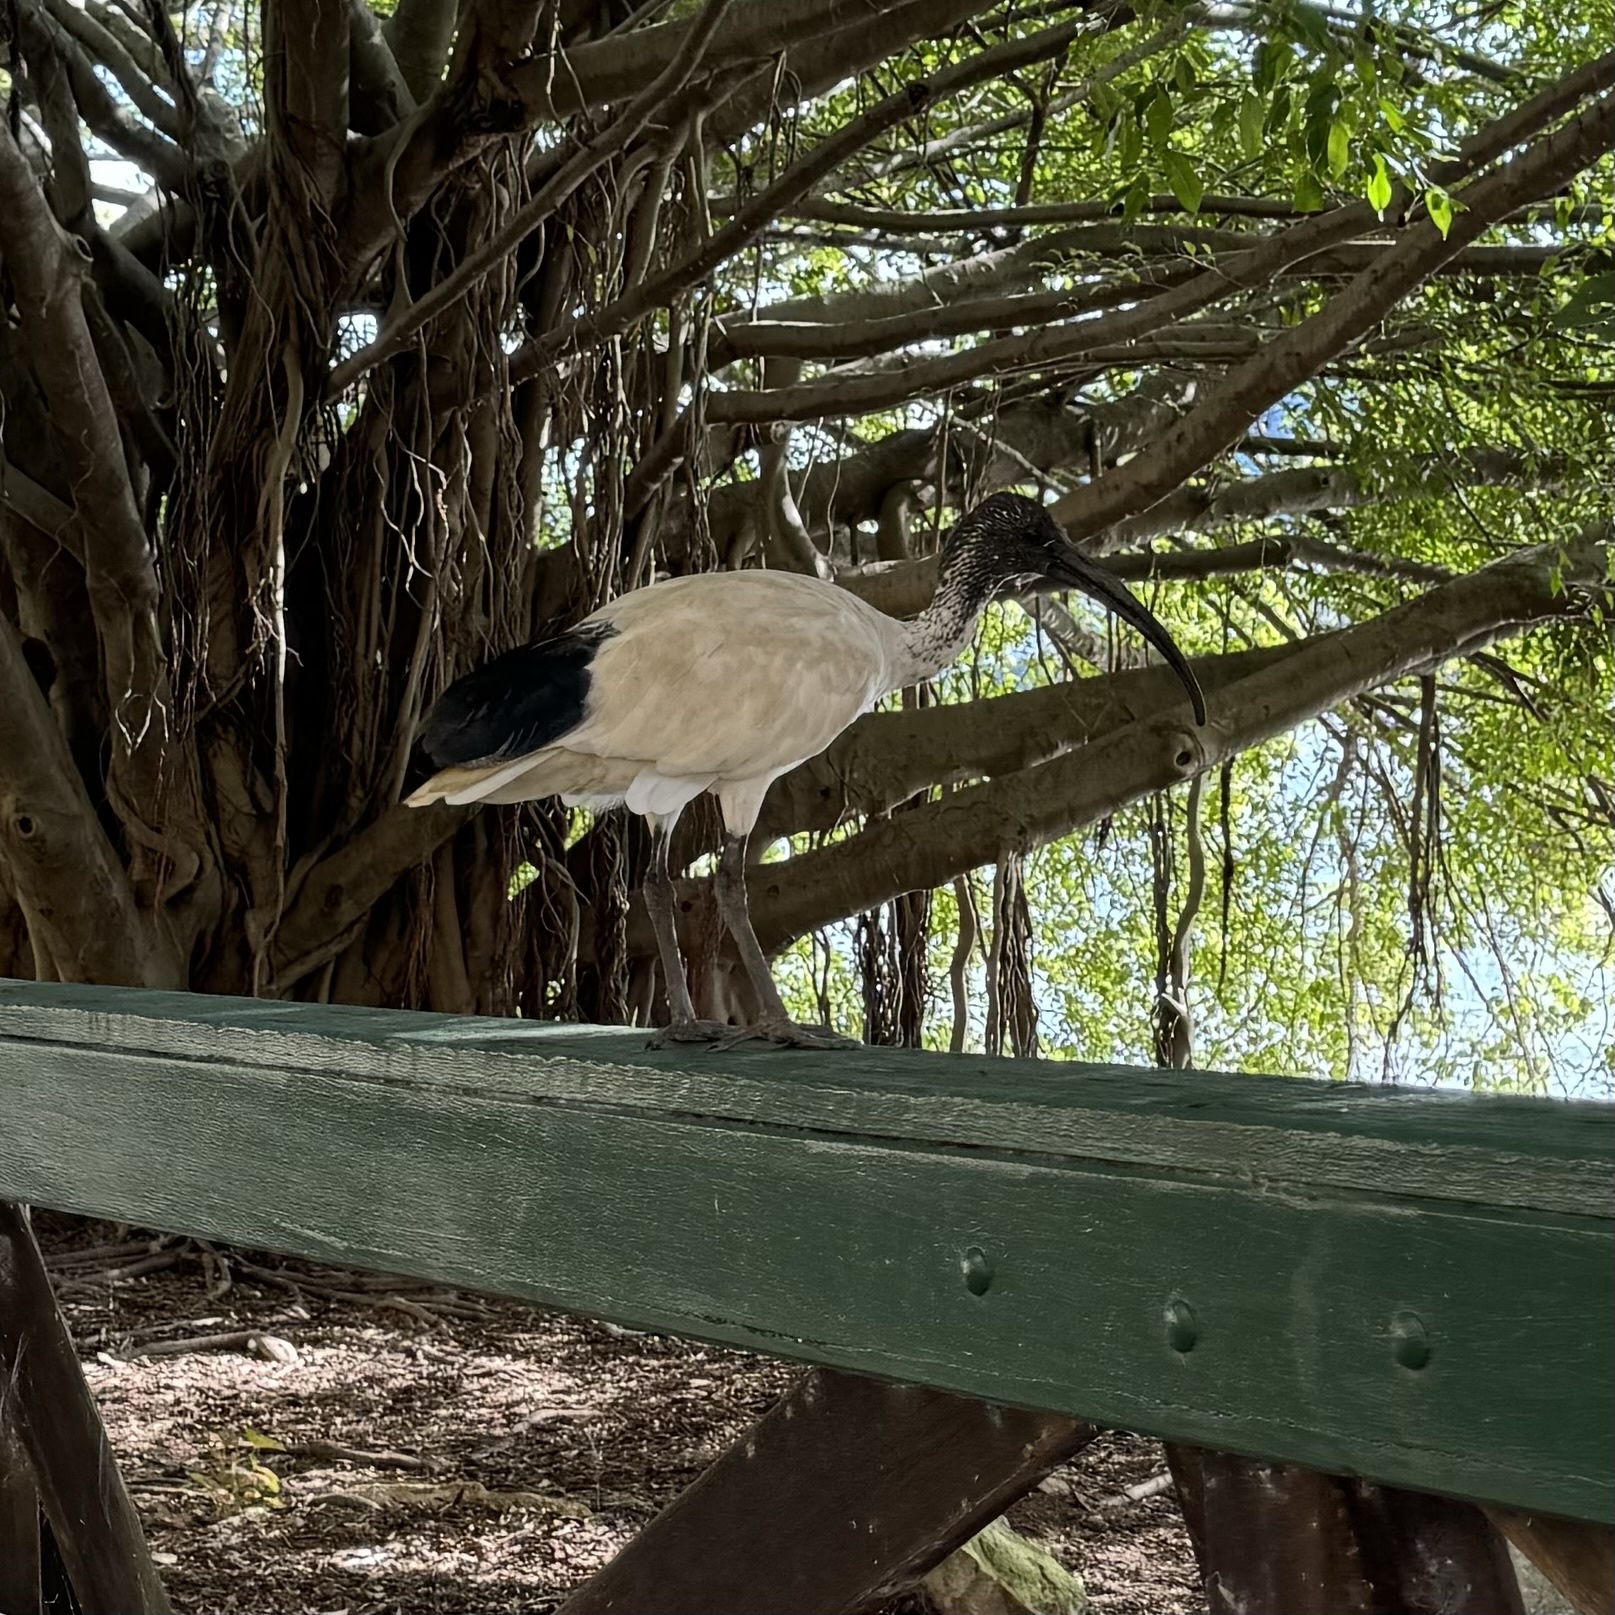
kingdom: Animalia
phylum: Chordata
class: Aves
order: Pelecaniformes
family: Threskiornithidae
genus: Threskiornis
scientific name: Threskiornis molucca
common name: Australian white ibis
